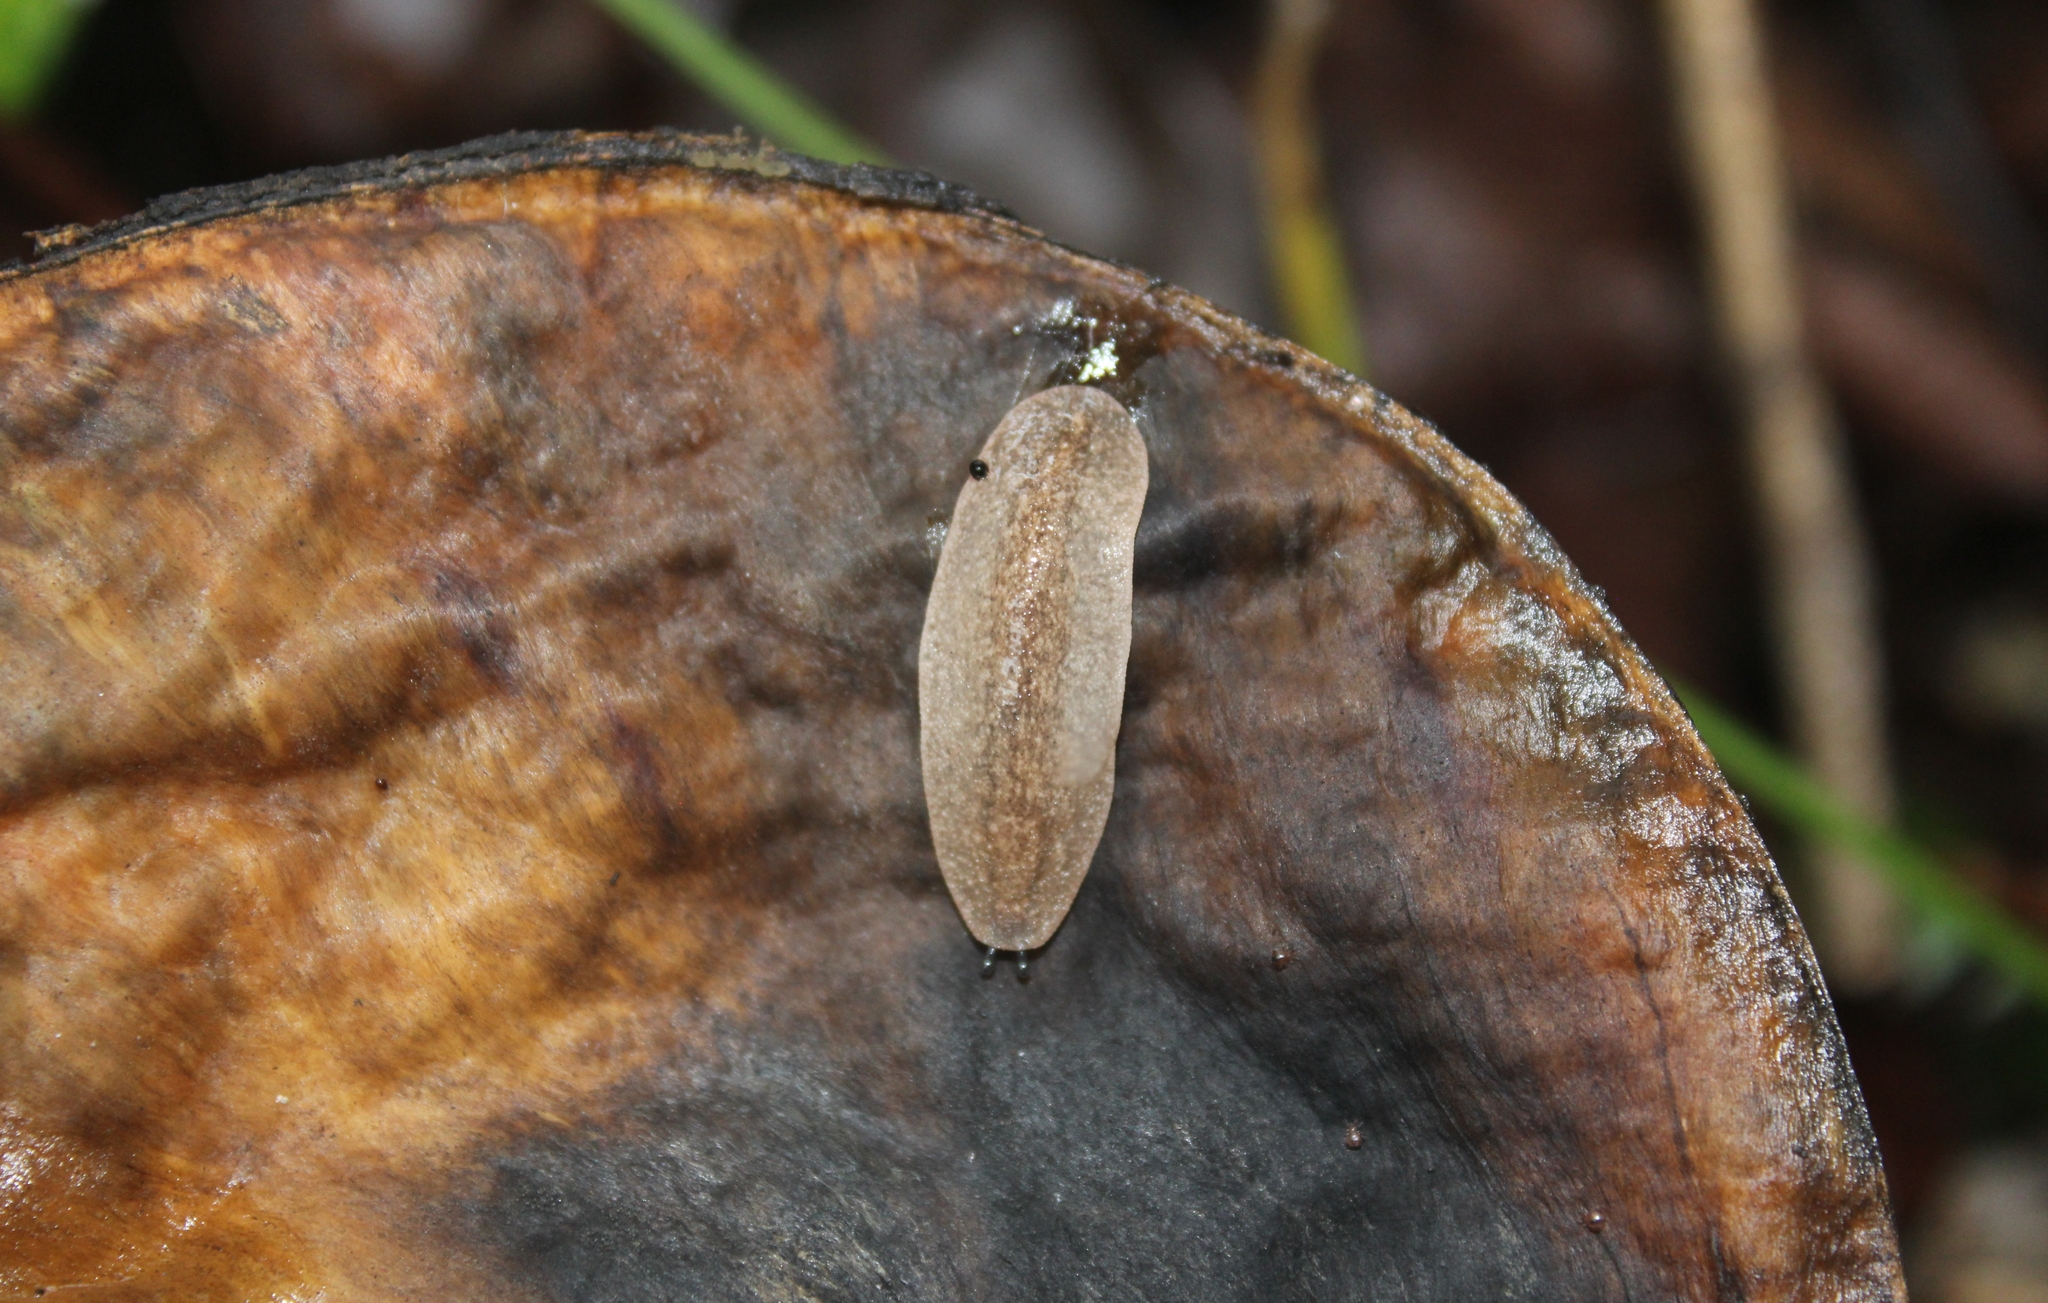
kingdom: Animalia
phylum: Mollusca
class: Gastropoda
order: Systellommatophora
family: Veronicellidae
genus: Leidyula
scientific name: Leidyula moreleti
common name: Tan leatherleaf
